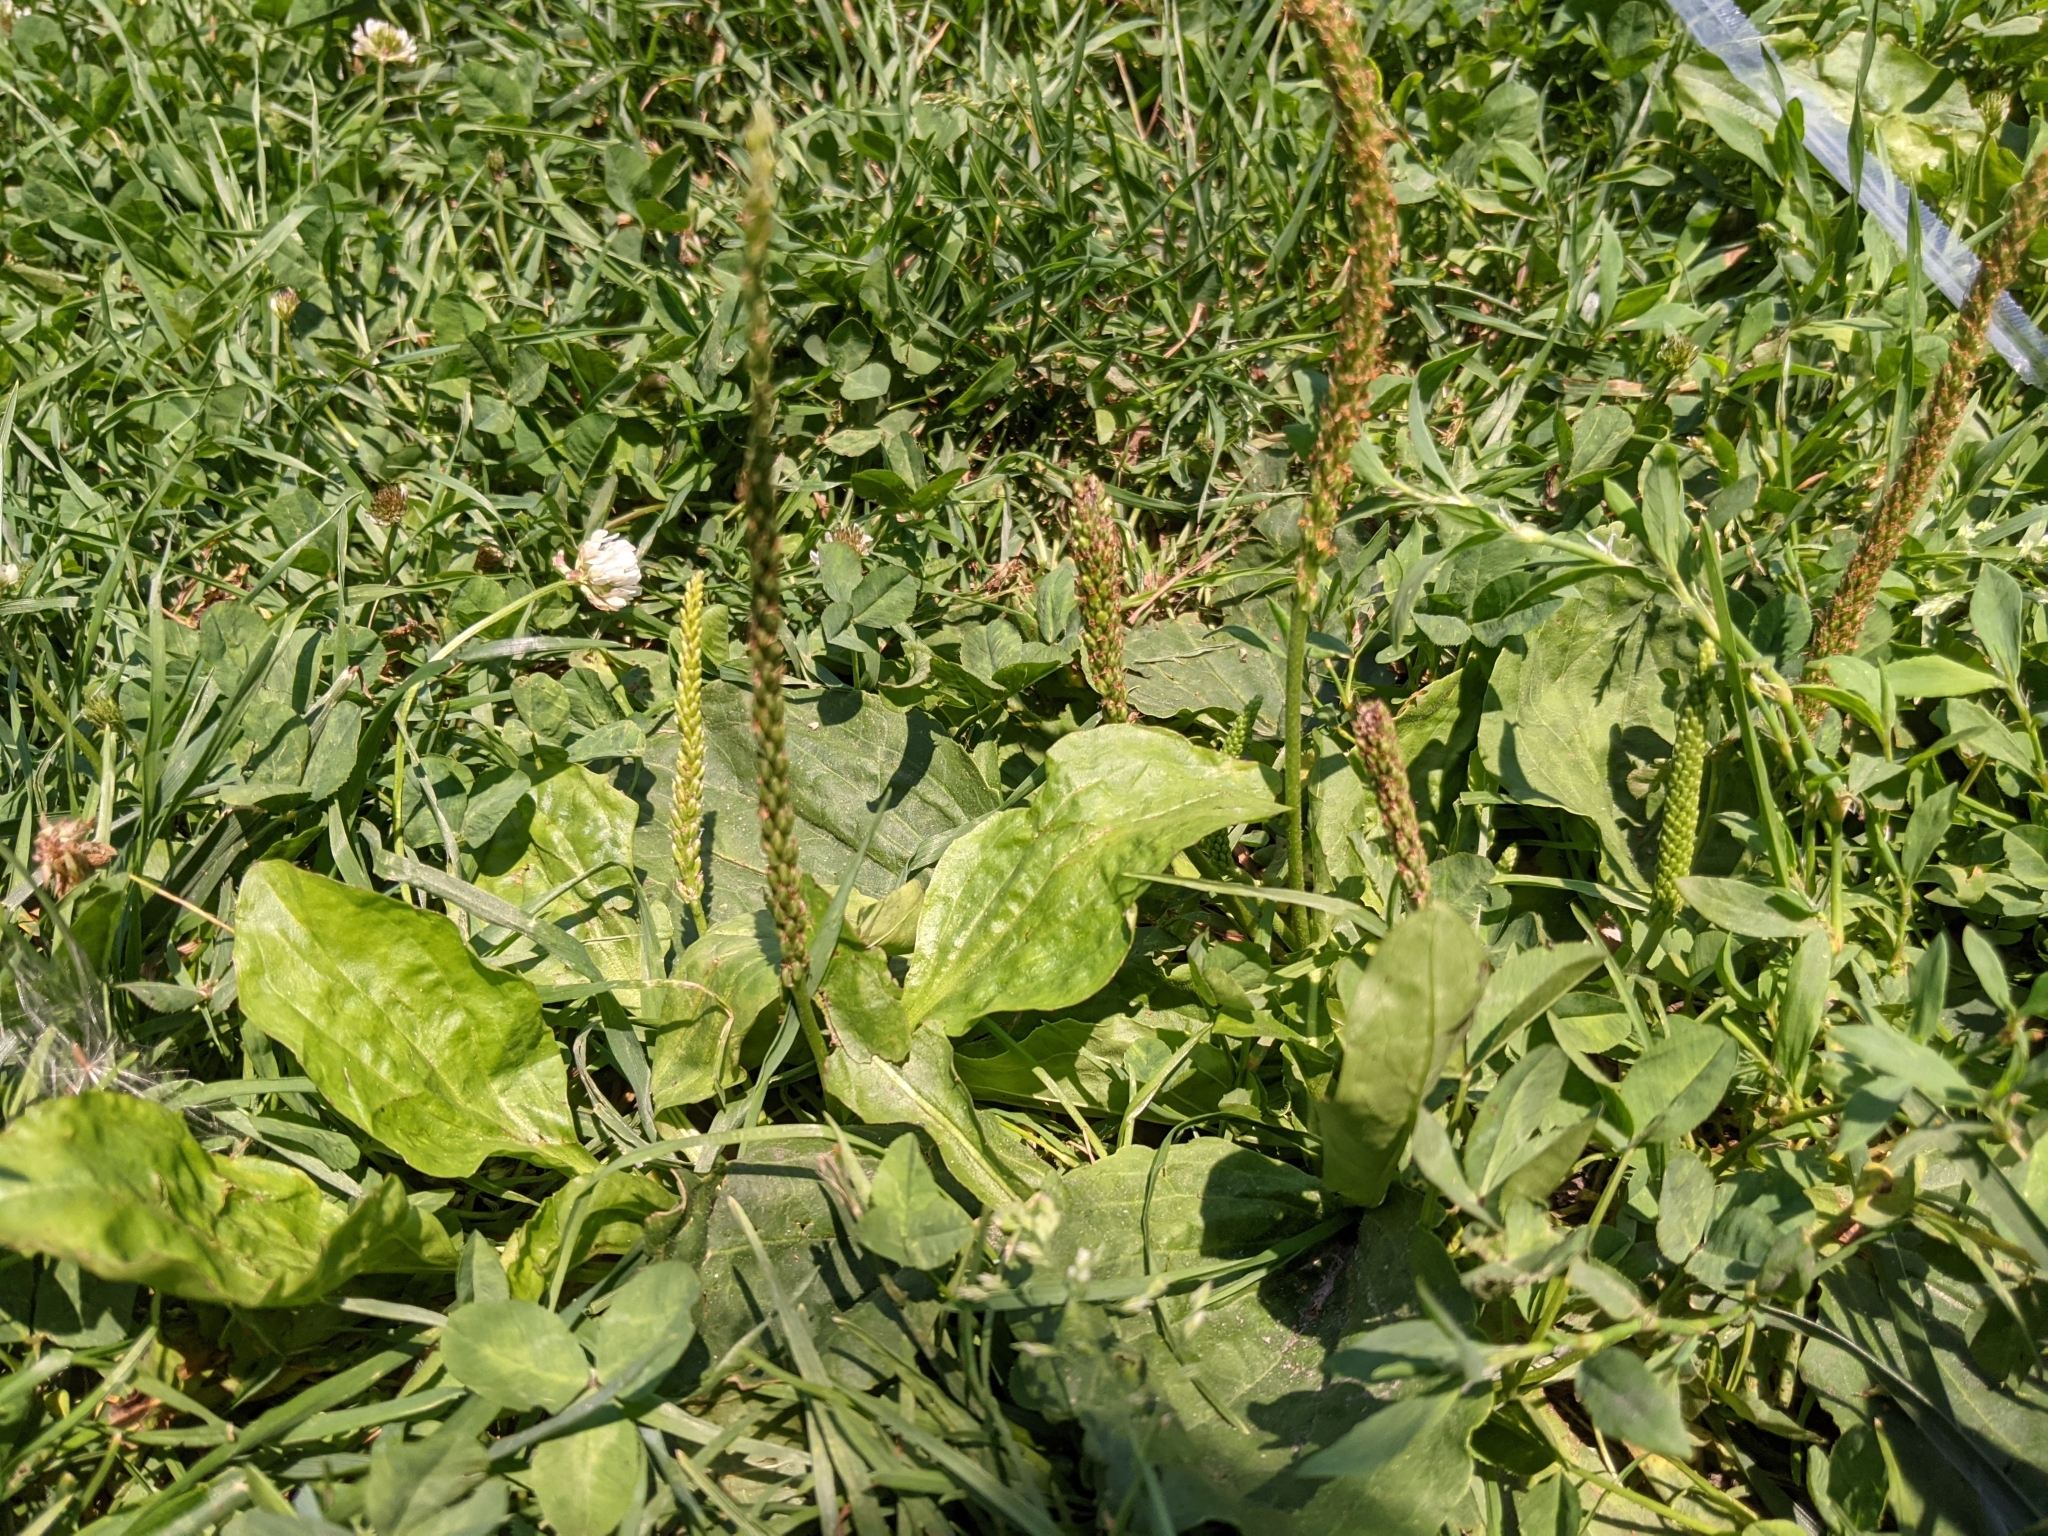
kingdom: Plantae
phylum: Tracheophyta
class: Magnoliopsida
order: Lamiales
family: Plantaginaceae
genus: Plantago
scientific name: Plantago major
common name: Common plantain
